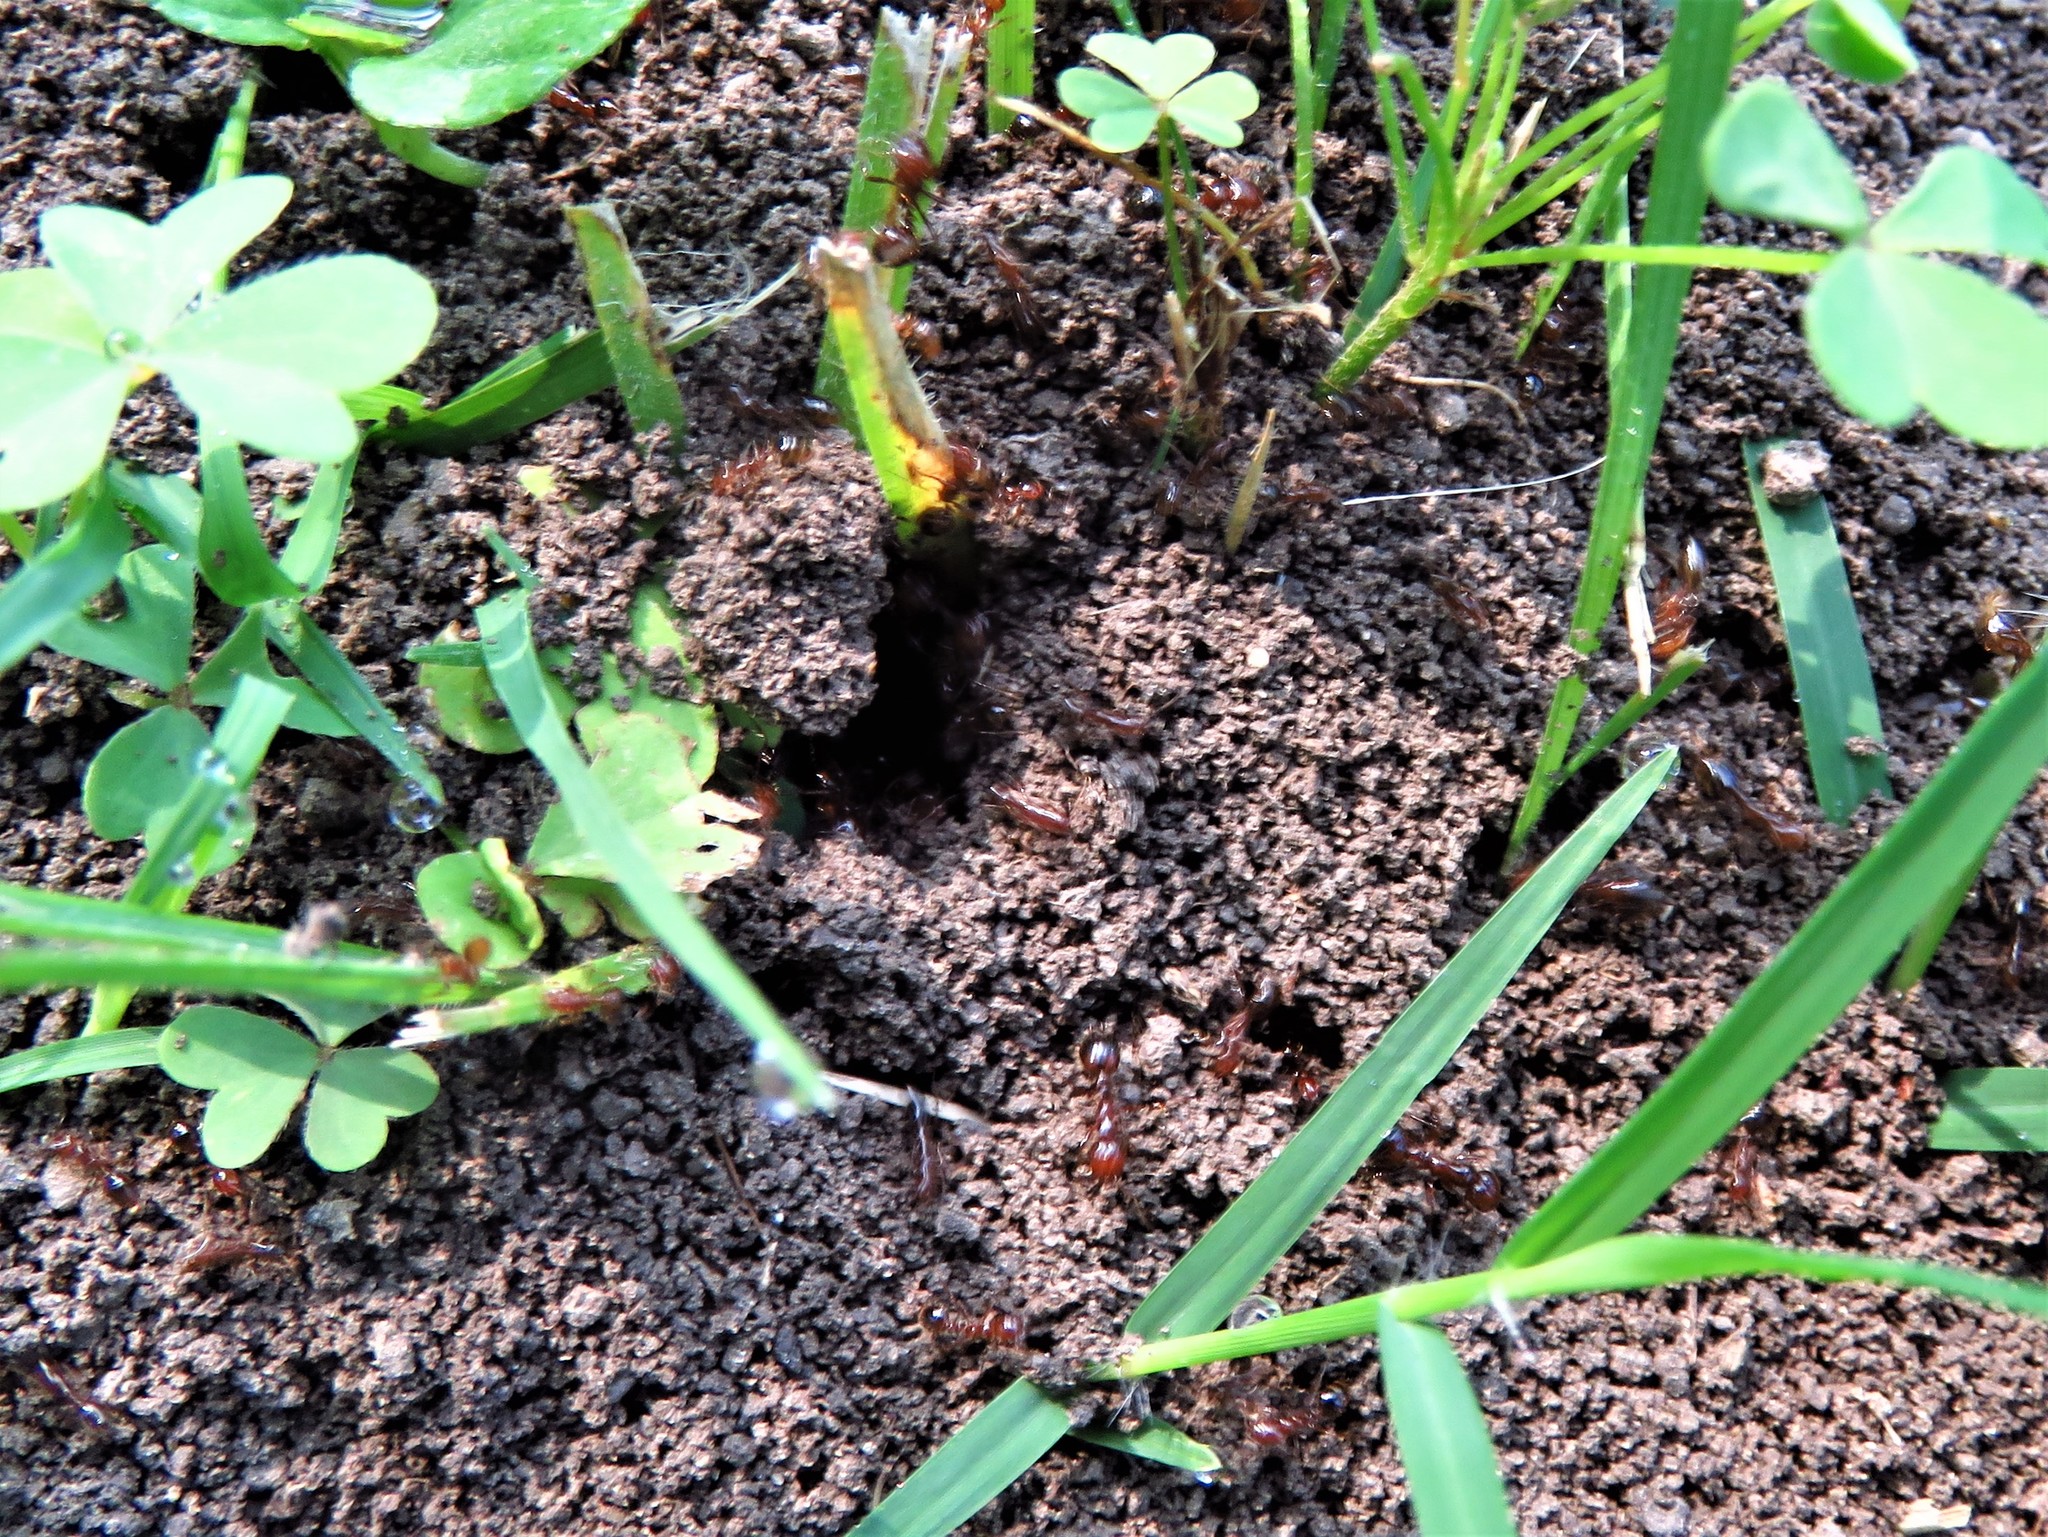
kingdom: Animalia
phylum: Arthropoda
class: Insecta
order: Hymenoptera
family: Formicidae
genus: Solenopsis
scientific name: Solenopsis invicta
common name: Red imported fire ant
